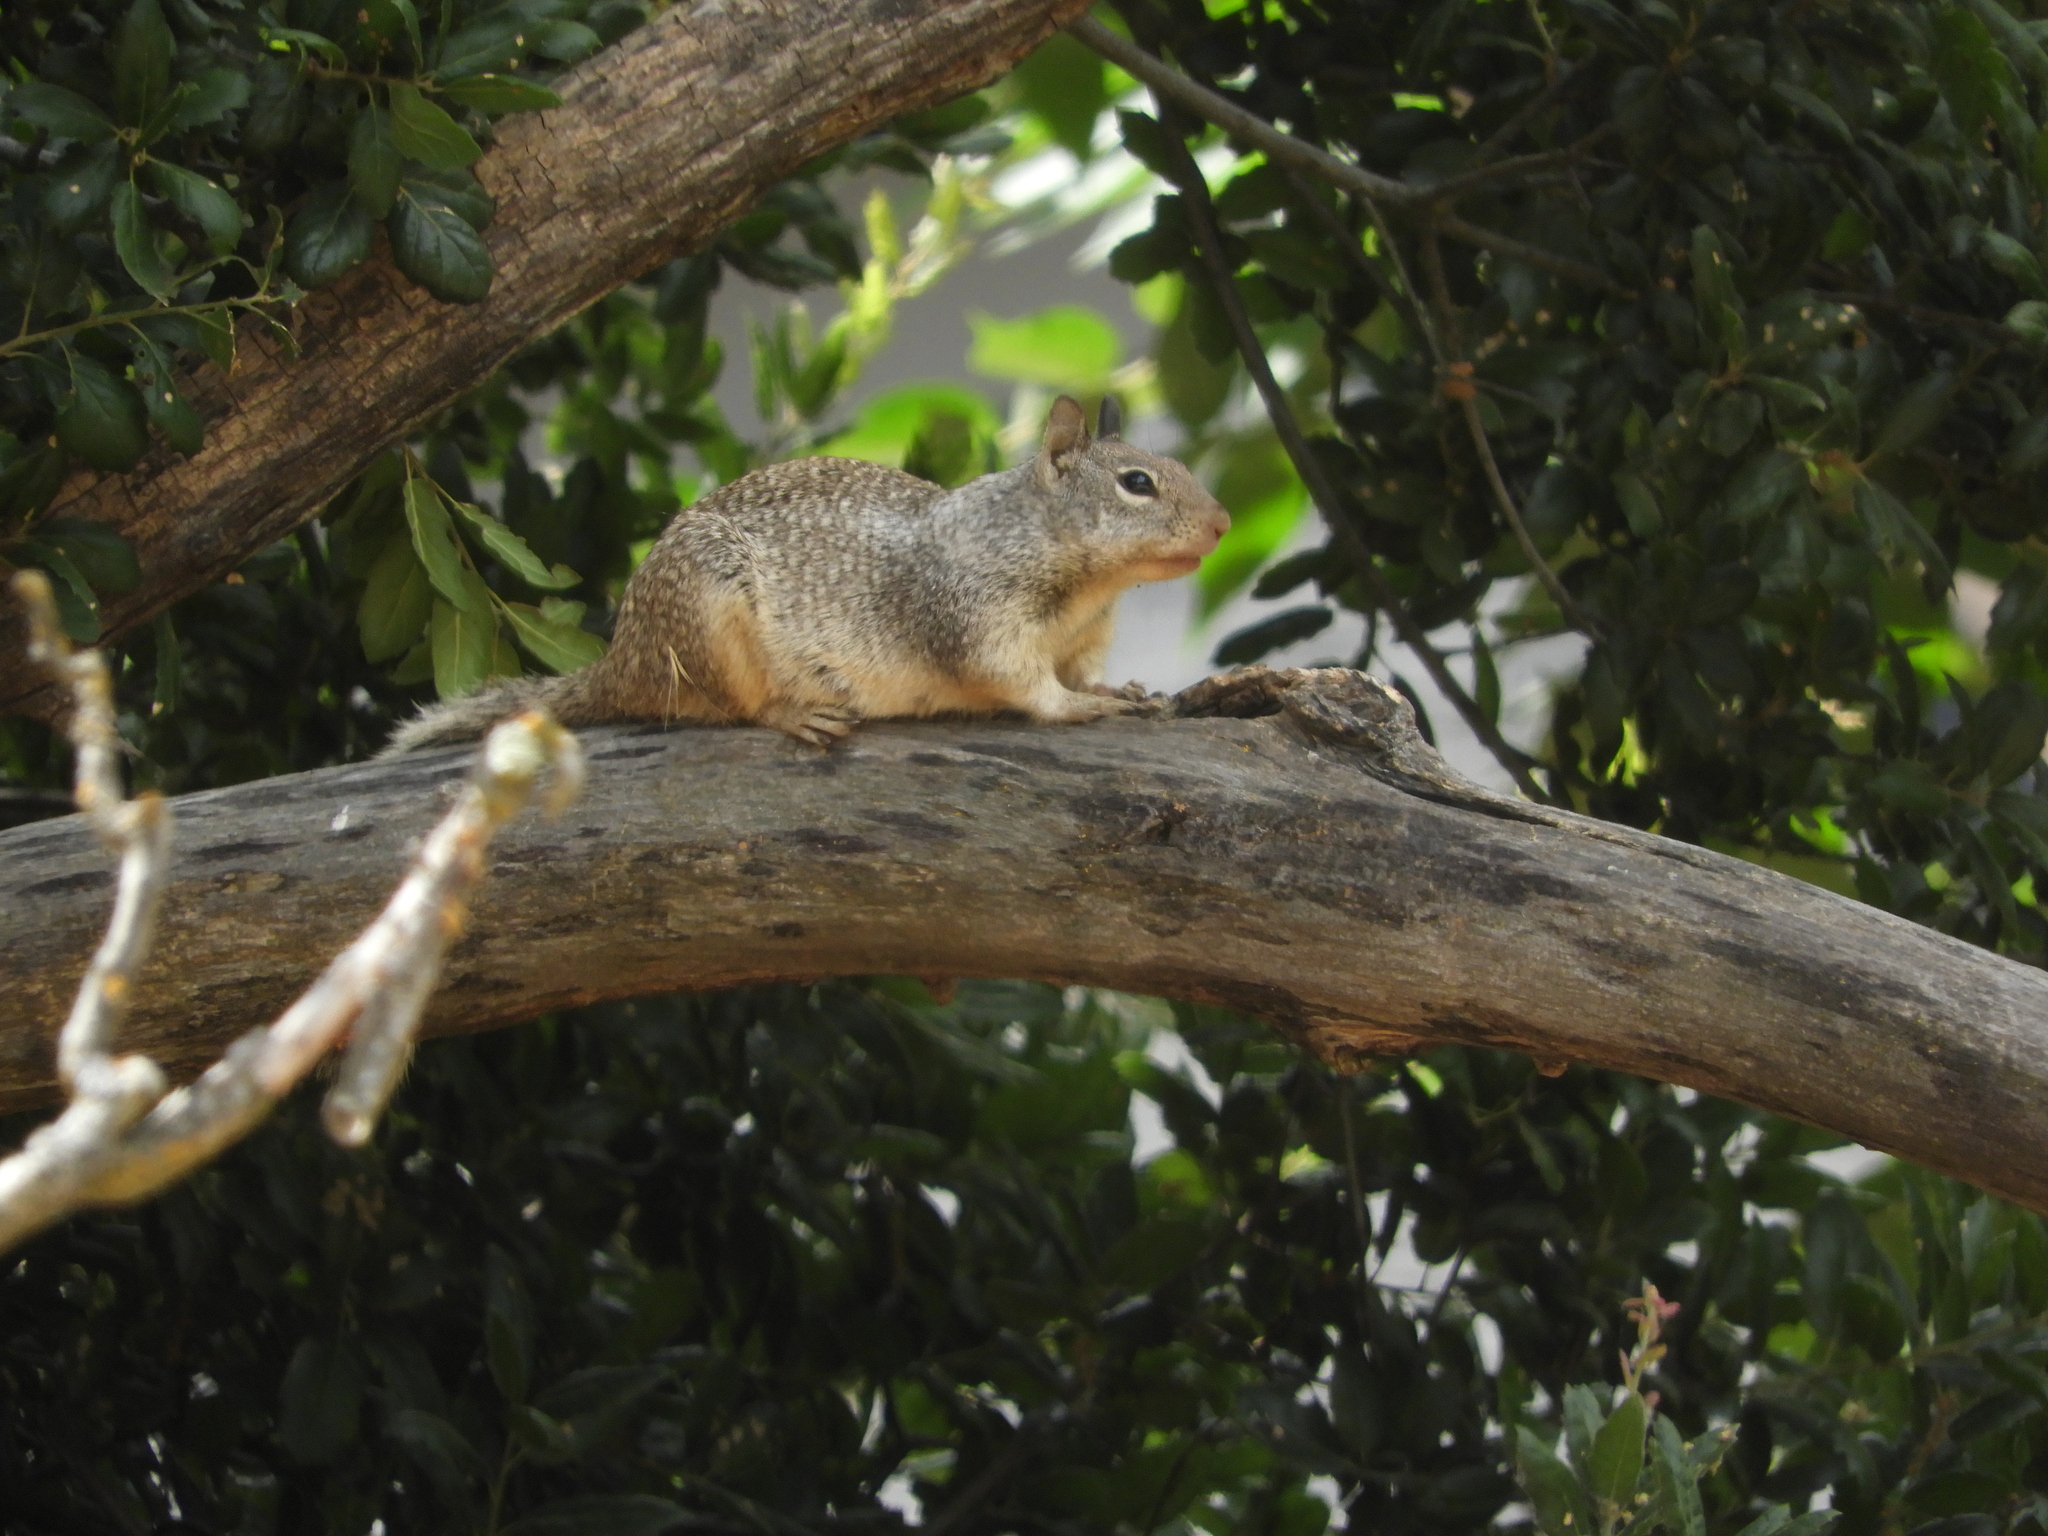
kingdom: Animalia
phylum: Chordata
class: Mammalia
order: Rodentia
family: Sciuridae
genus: Otospermophilus
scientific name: Otospermophilus beecheyi
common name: California ground squirrel
